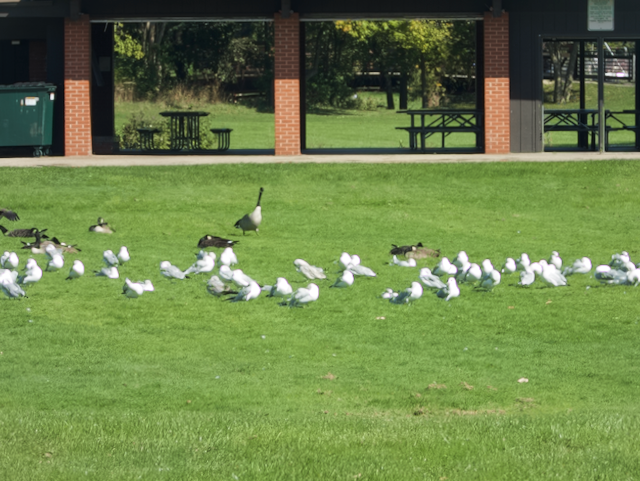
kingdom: Animalia
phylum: Chordata
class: Aves
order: Charadriiformes
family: Laridae
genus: Larus
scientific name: Larus delawarensis
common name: Ring-billed gull
